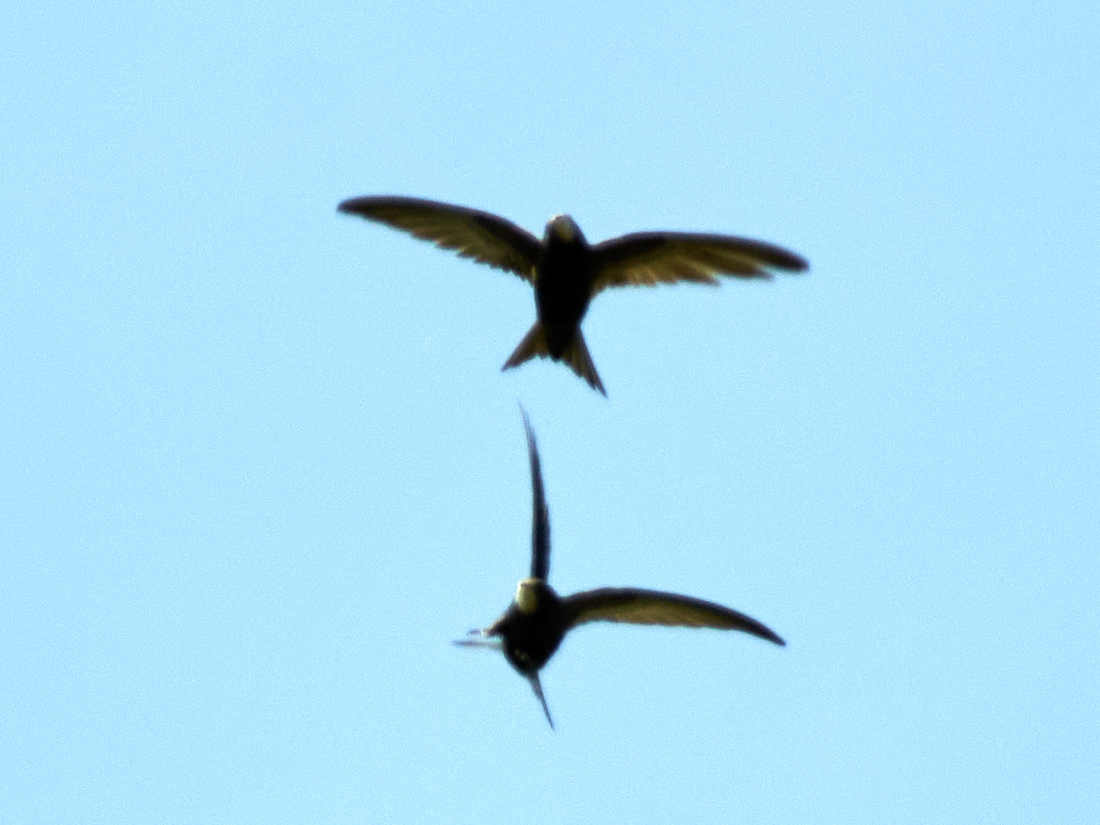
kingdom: Animalia
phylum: Chordata
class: Aves
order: Apodiformes
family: Apodidae
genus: Apus
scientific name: Apus apus
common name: Common swift
